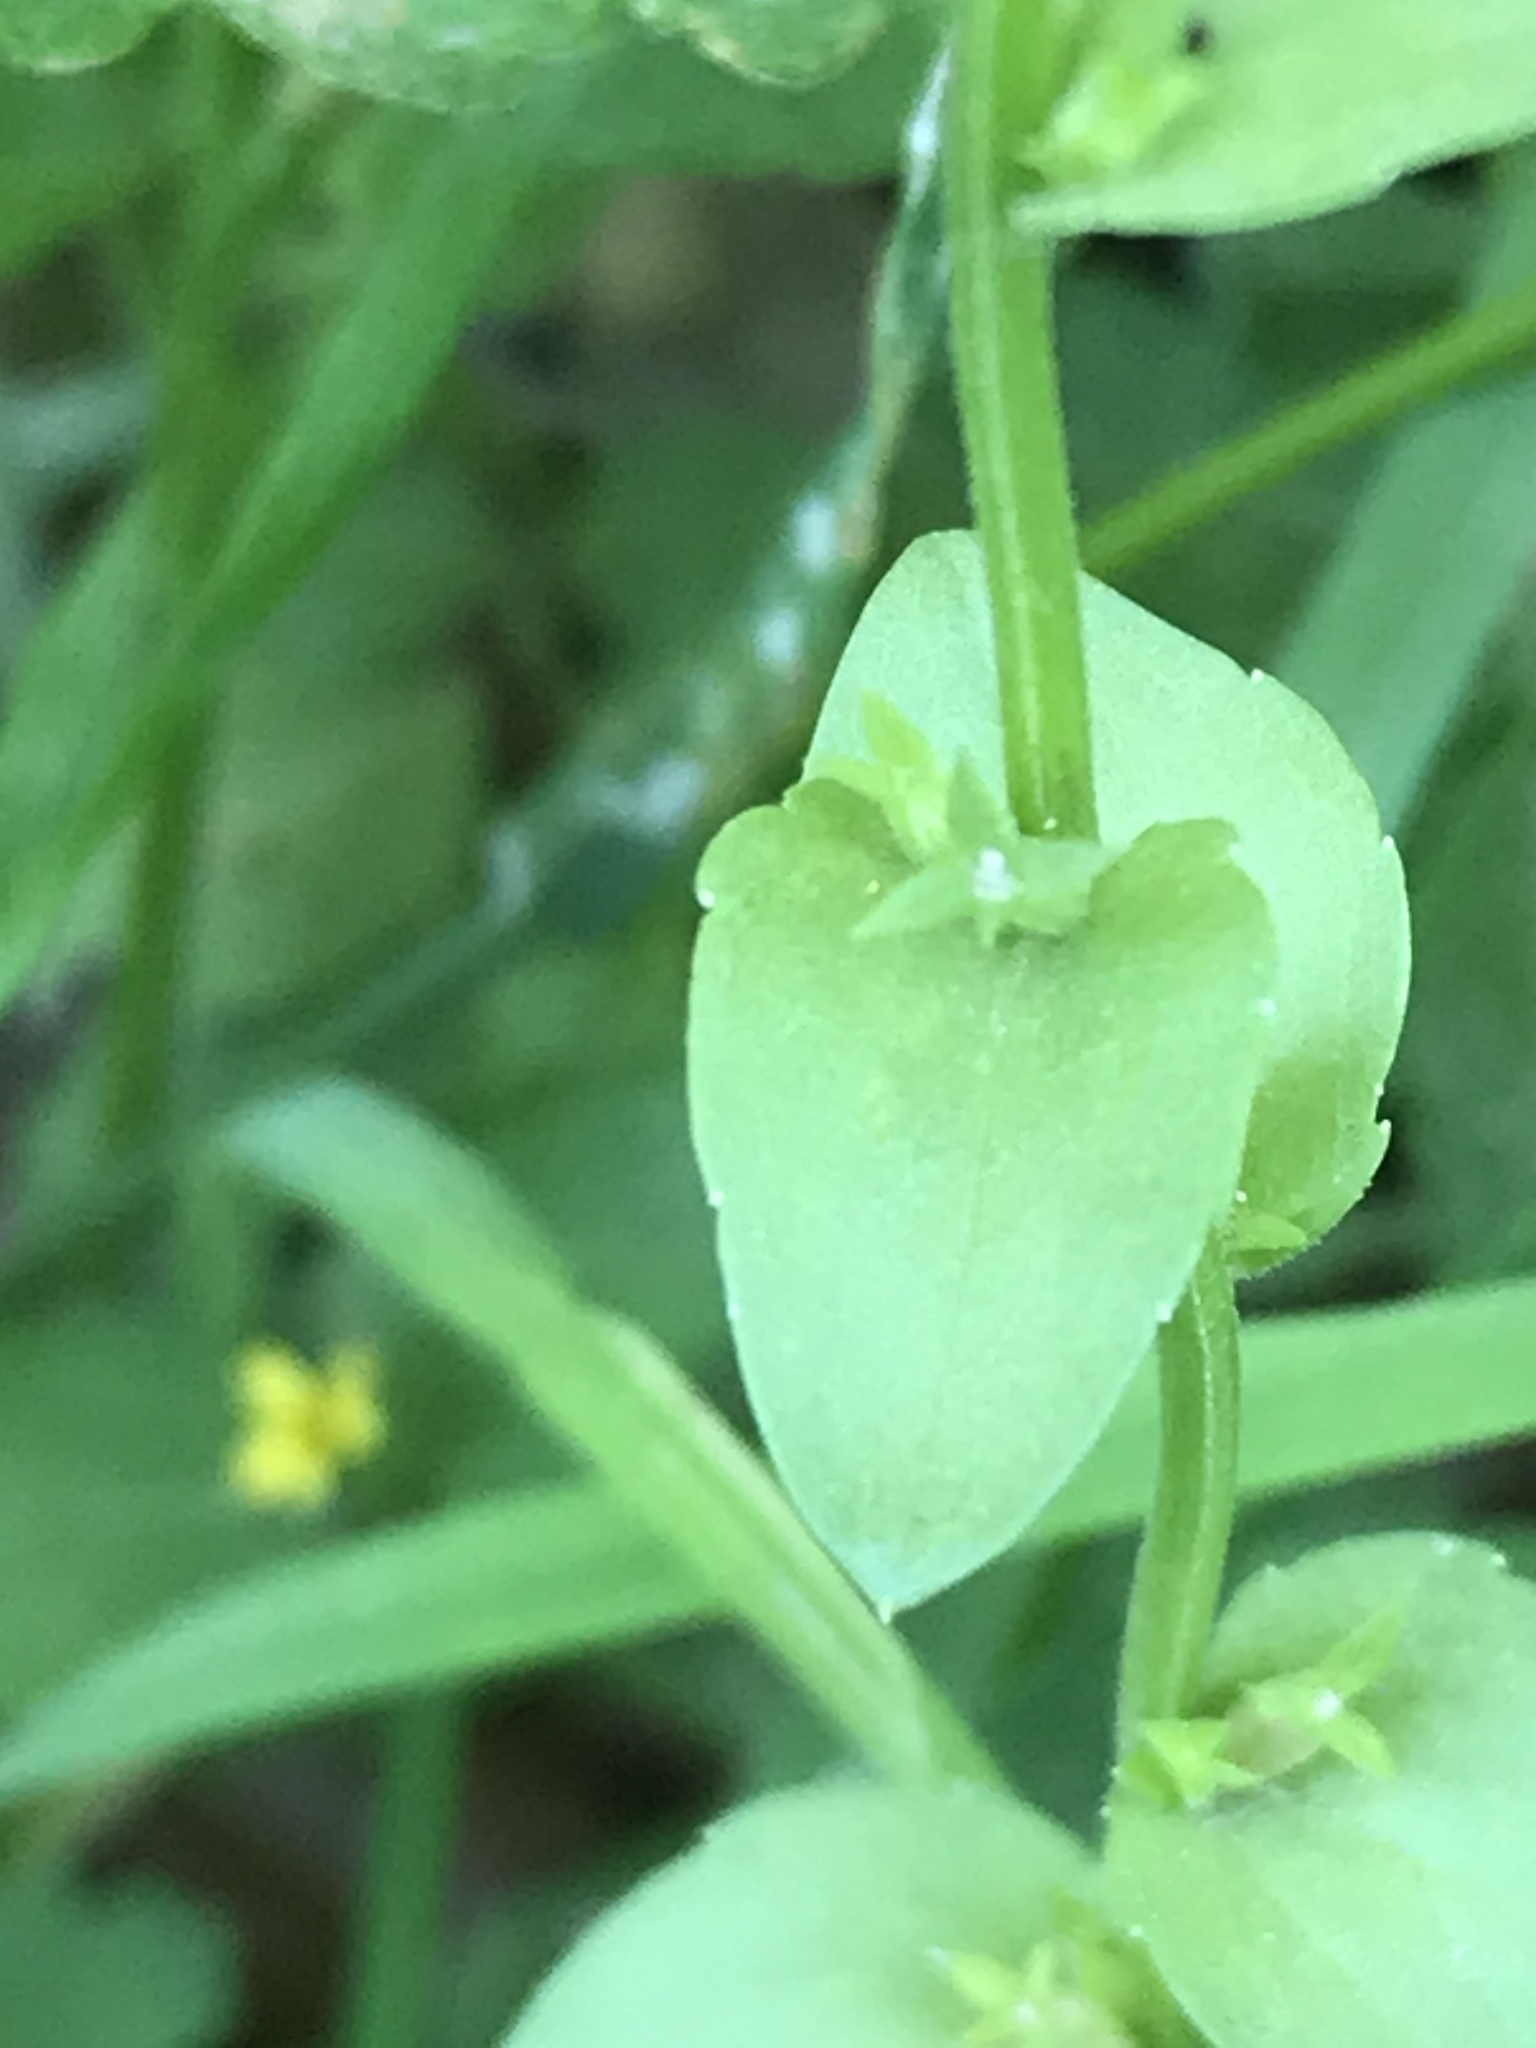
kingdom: Plantae
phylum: Tracheophyta
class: Magnoliopsida
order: Asterales
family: Campanulaceae
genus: Triodanis
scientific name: Triodanis biflora
